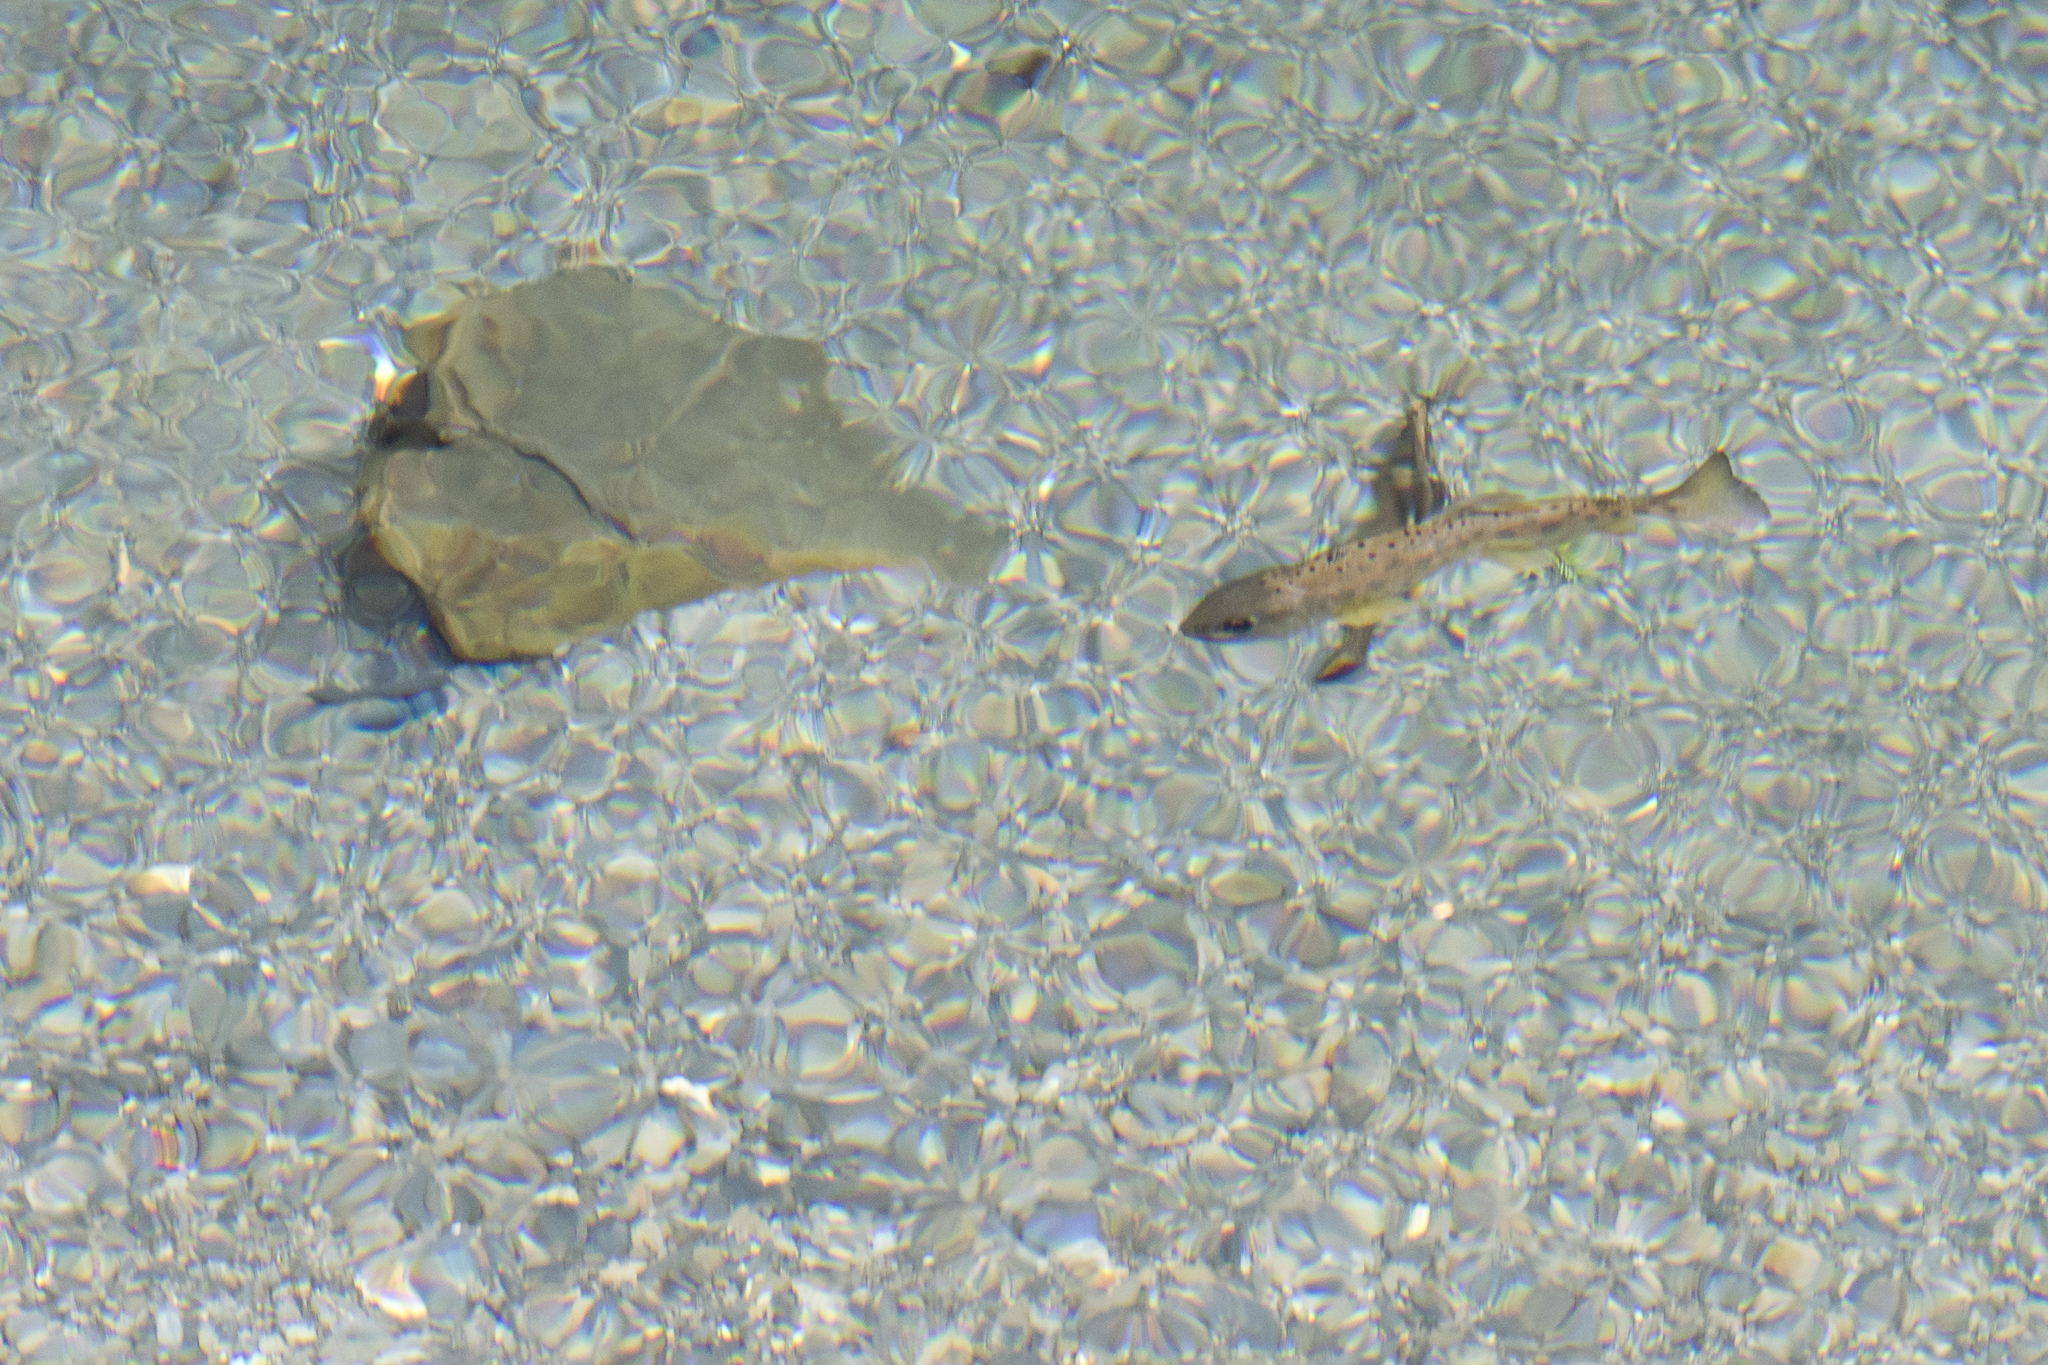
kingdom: Animalia
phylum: Chordata
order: Salmoniformes
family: Salmonidae
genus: Oncorhynchus
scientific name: Oncorhynchus formosanus
